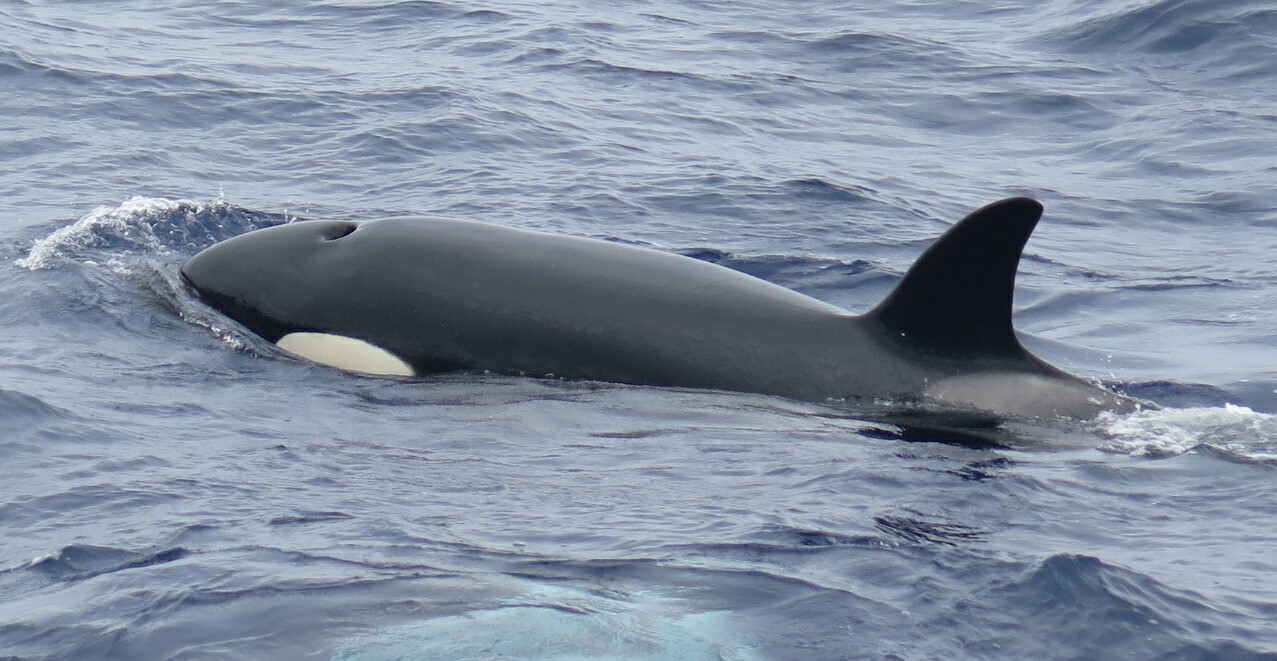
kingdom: Animalia
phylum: Chordata
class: Mammalia
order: Cetacea
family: Delphinidae
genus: Orcinus
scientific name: Orcinus orca
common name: Killer whale
